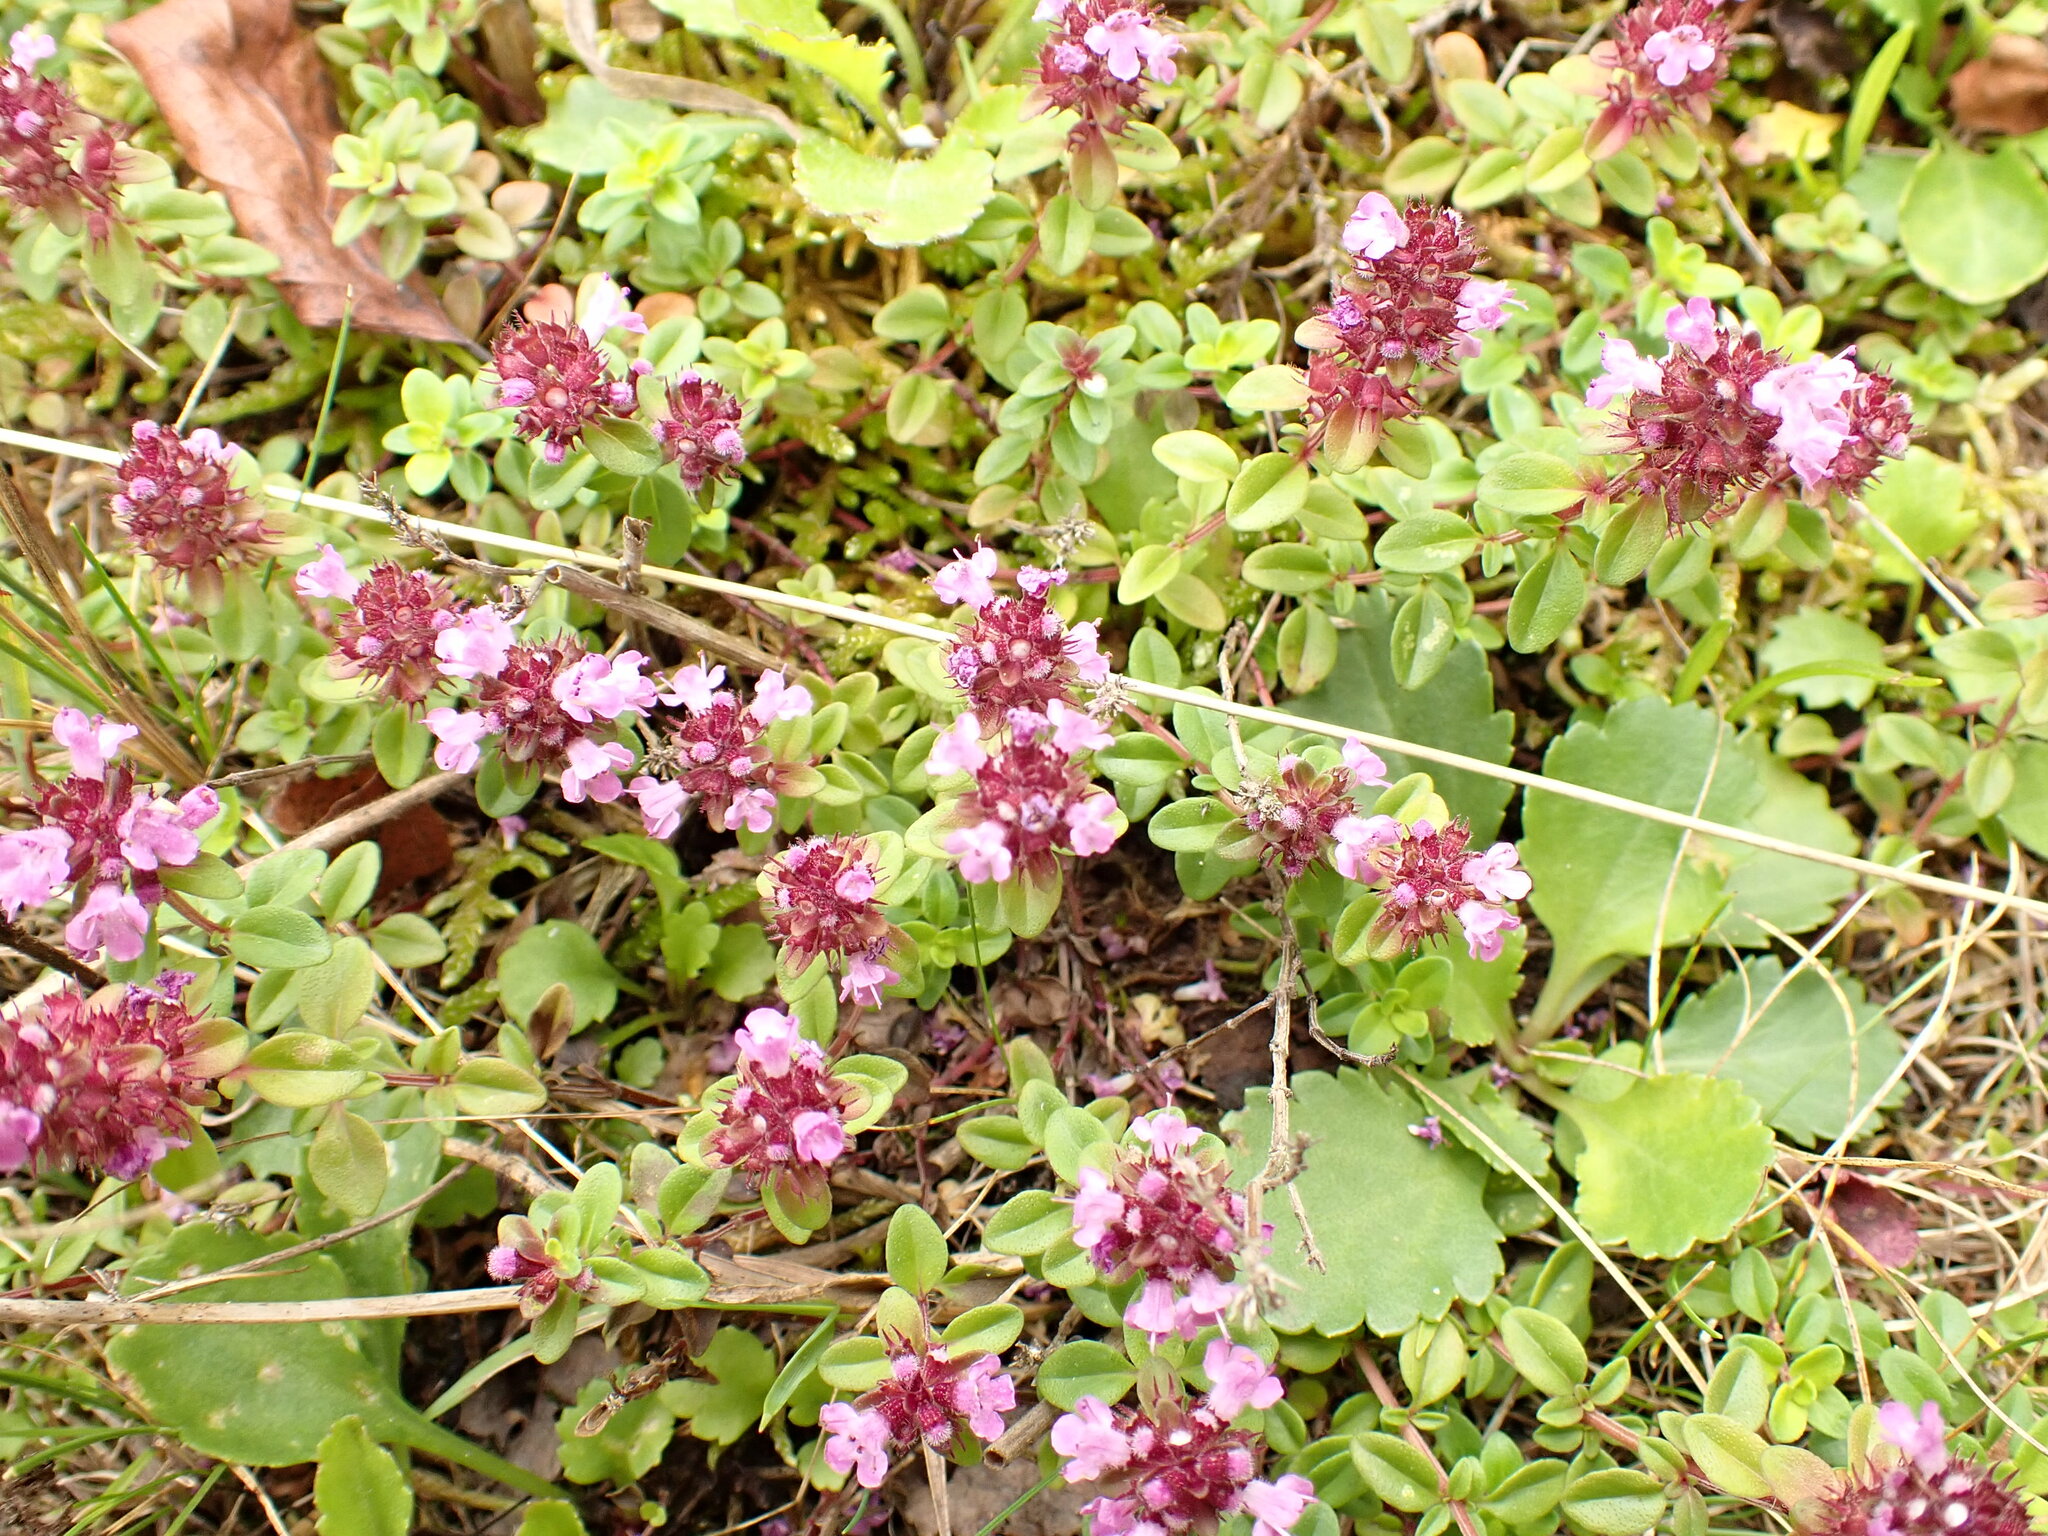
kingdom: Plantae
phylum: Tracheophyta
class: Magnoliopsida
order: Lamiales
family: Lamiaceae
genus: Thymus
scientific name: Thymus pulegioides
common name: Large thyme
